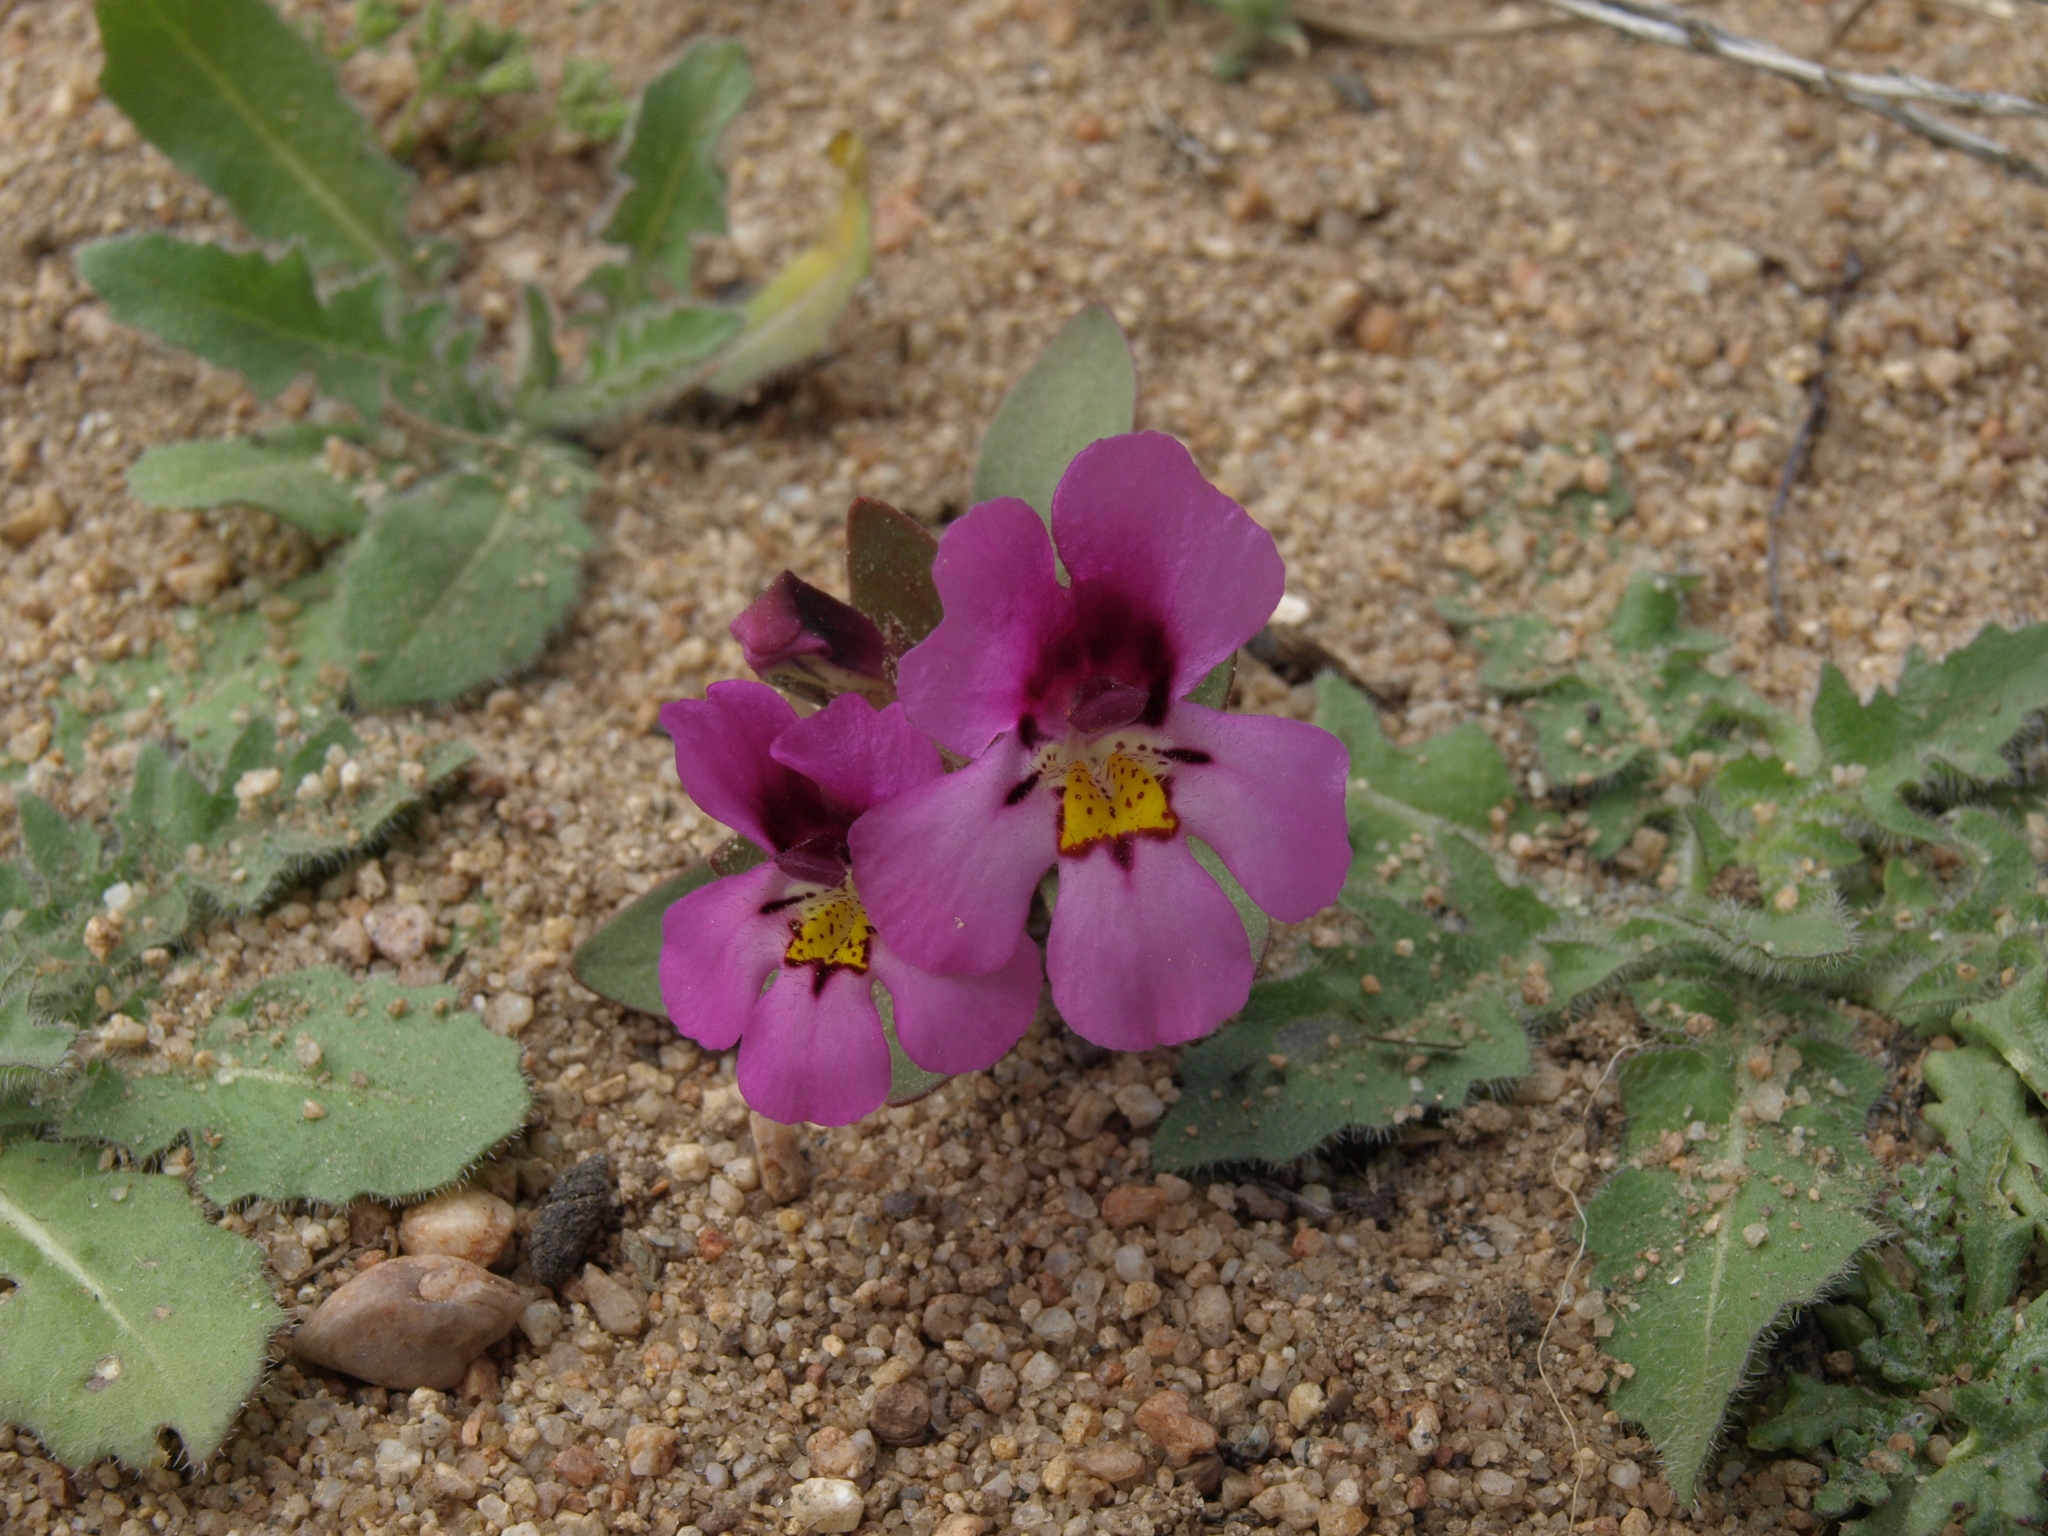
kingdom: Plantae
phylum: Tracheophyta
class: Magnoliopsida
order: Lamiales
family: Phrymaceae
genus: Diplacus
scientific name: Diplacus ovatus
